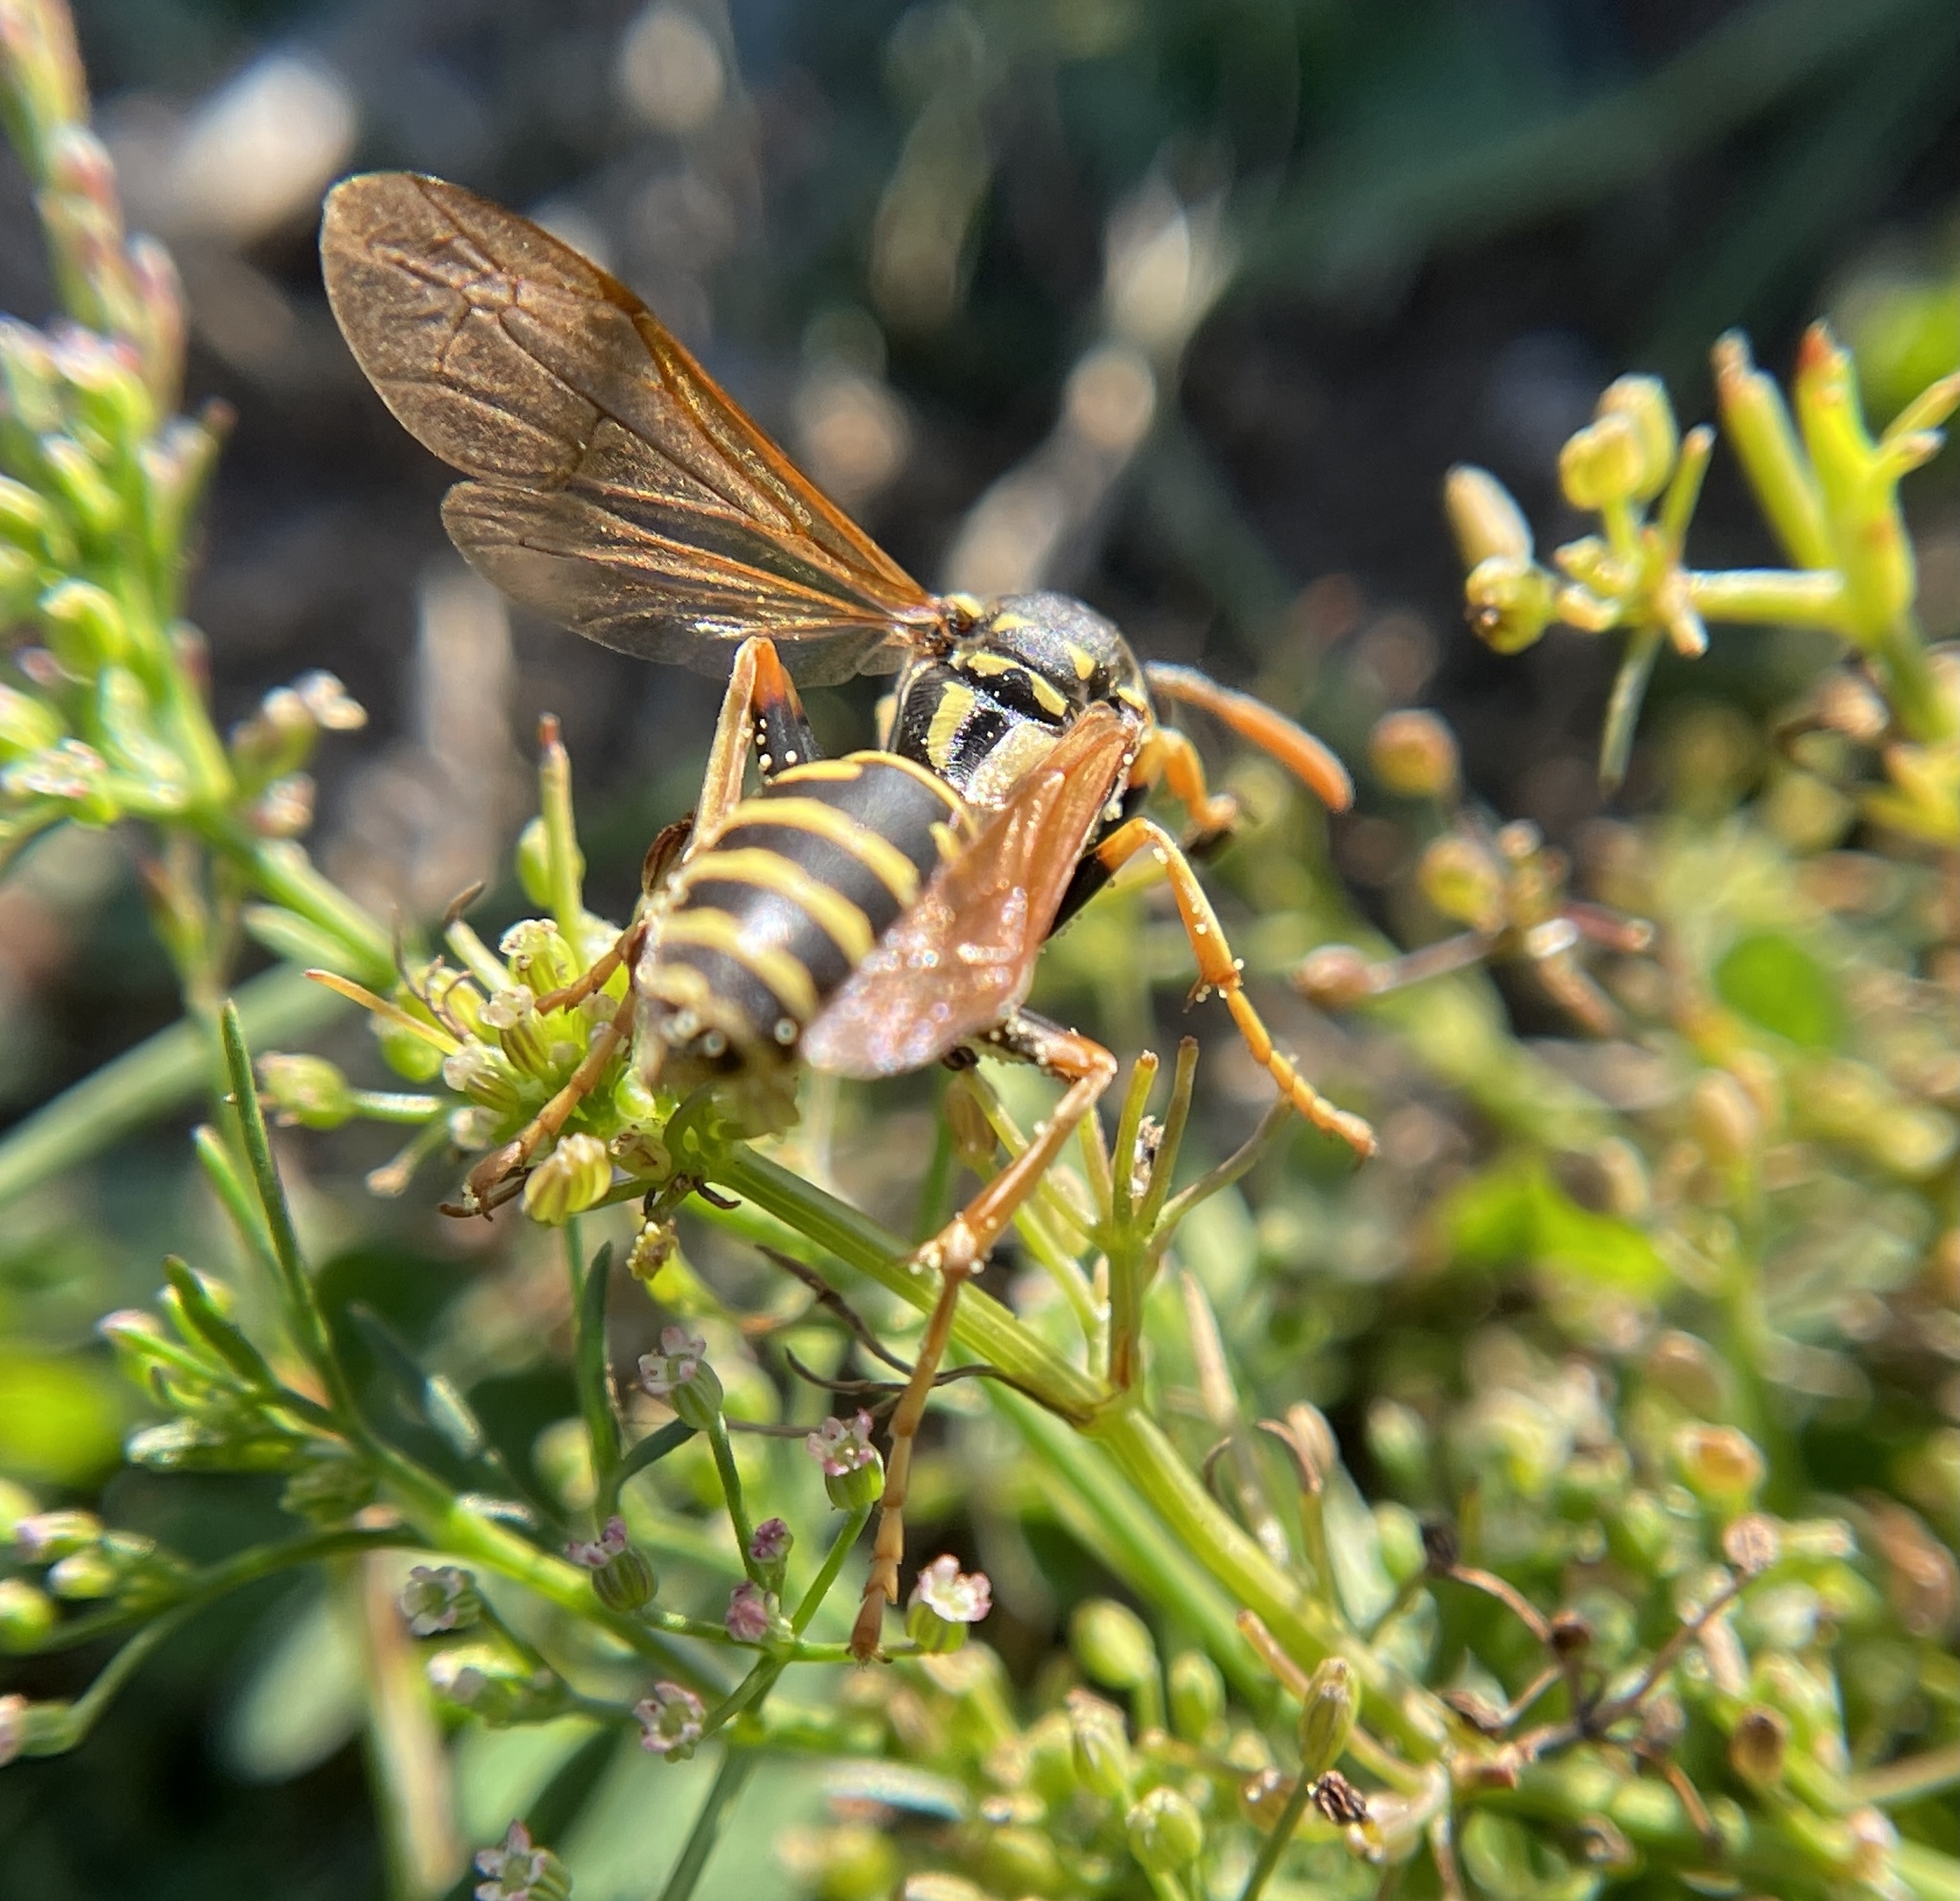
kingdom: Animalia
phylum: Arthropoda
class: Insecta
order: Hymenoptera
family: Eumenidae
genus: Polistes
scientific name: Polistes dominula
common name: Paper wasp
